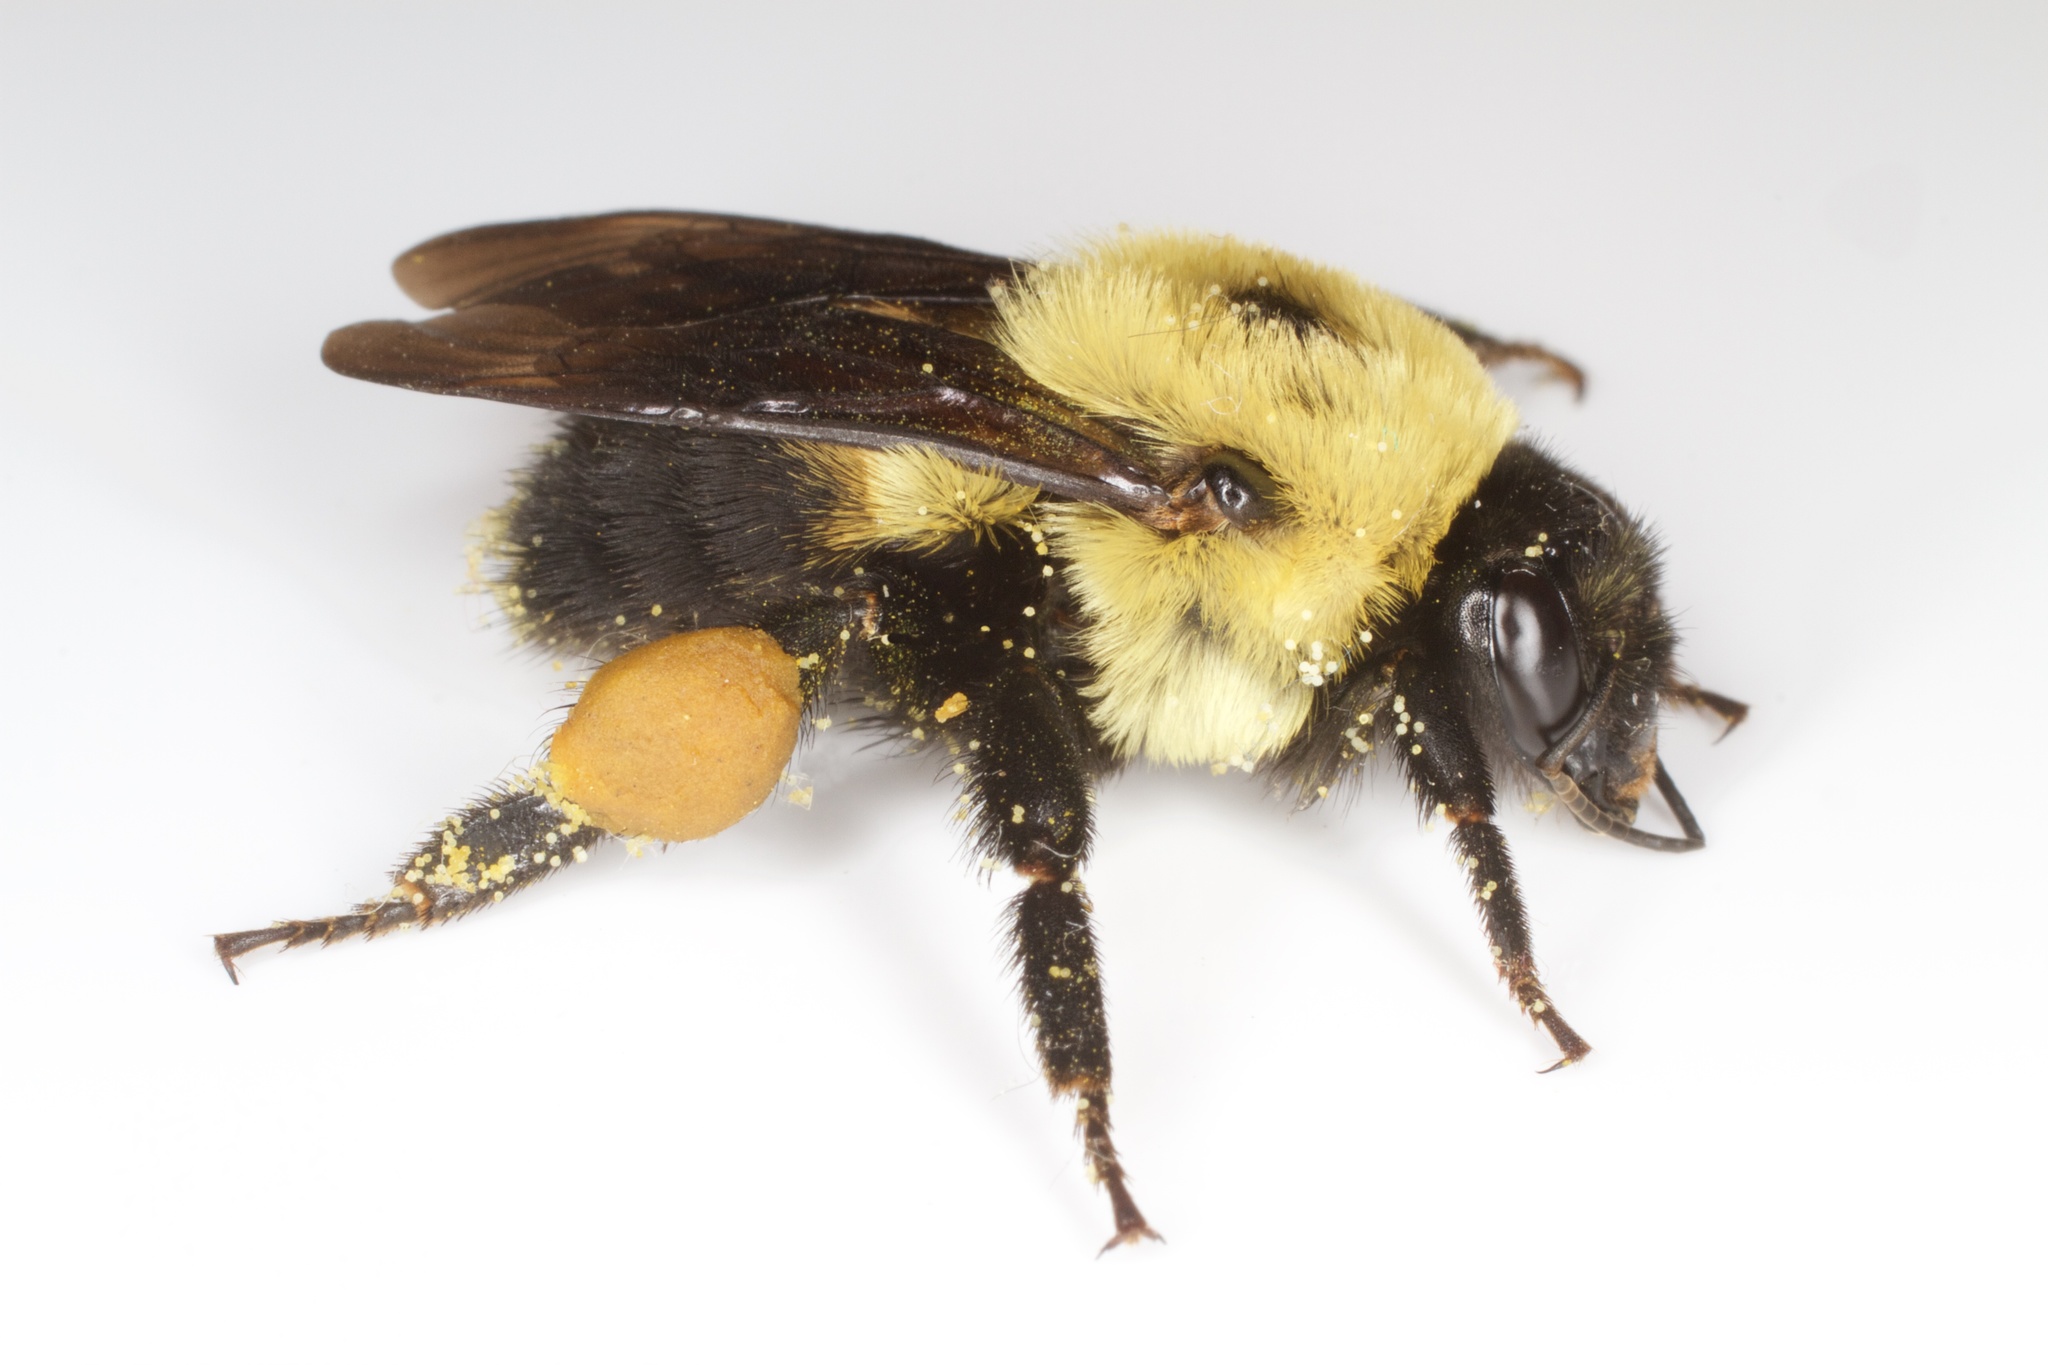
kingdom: Animalia
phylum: Arthropoda
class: Insecta
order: Hymenoptera
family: Apidae
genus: Bombus
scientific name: Bombus griseocollis
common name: Brown-belted bumble bee
